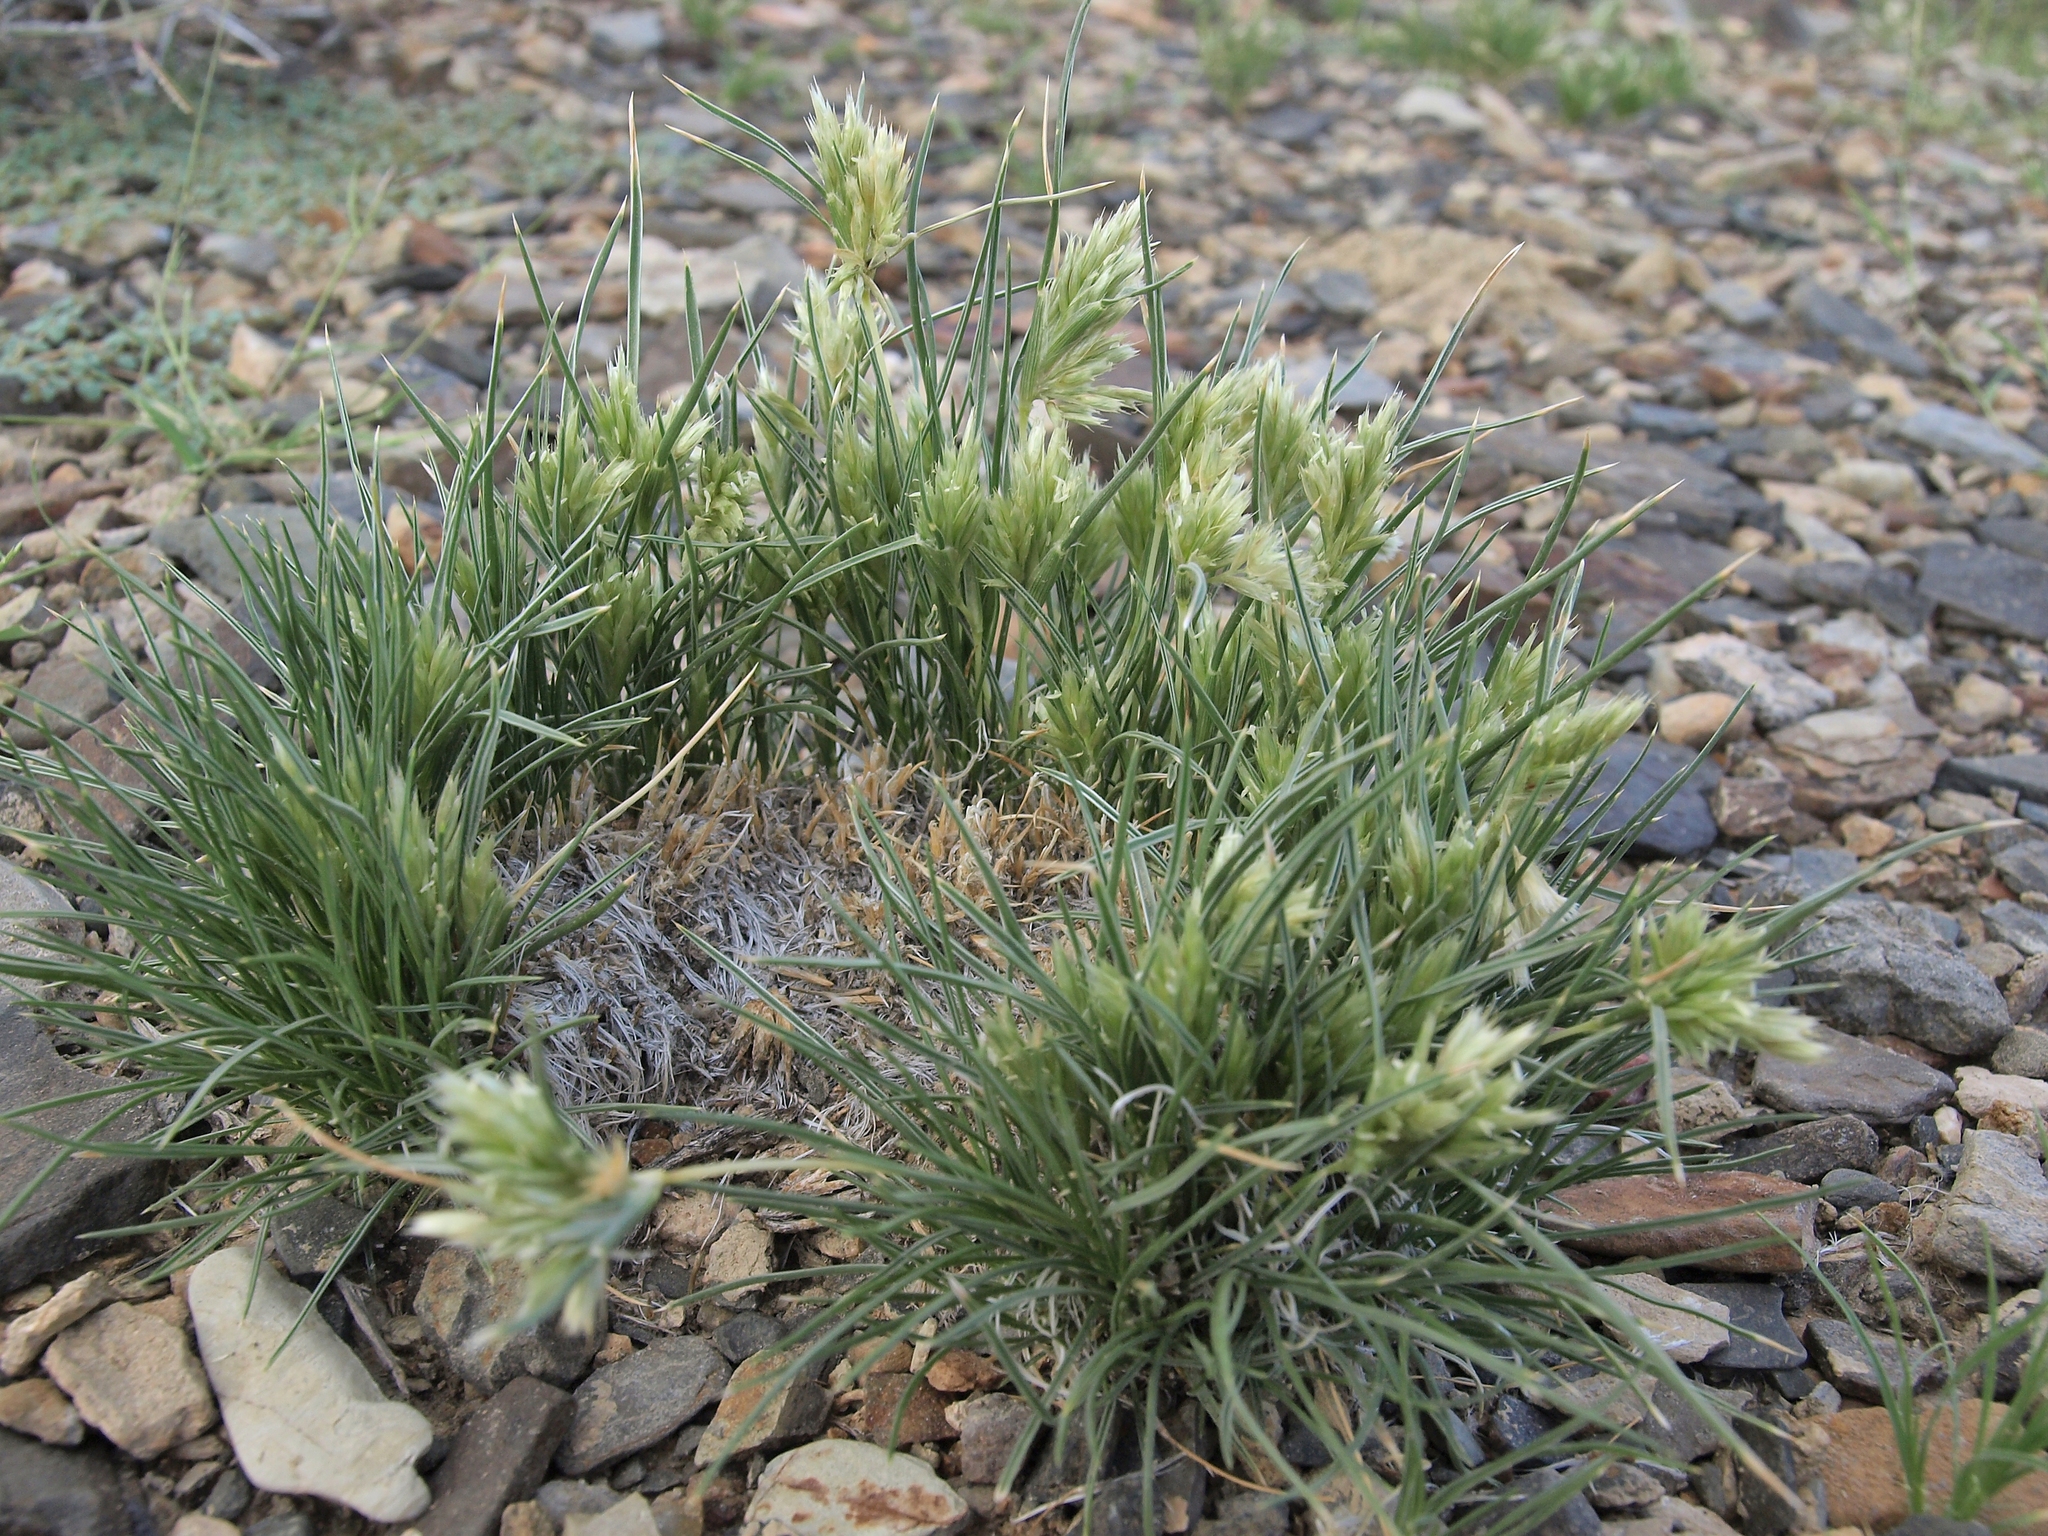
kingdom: Plantae
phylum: Tracheophyta
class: Liliopsida
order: Poales
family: Poaceae
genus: Blepharidachne
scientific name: Blepharidachne kingii
